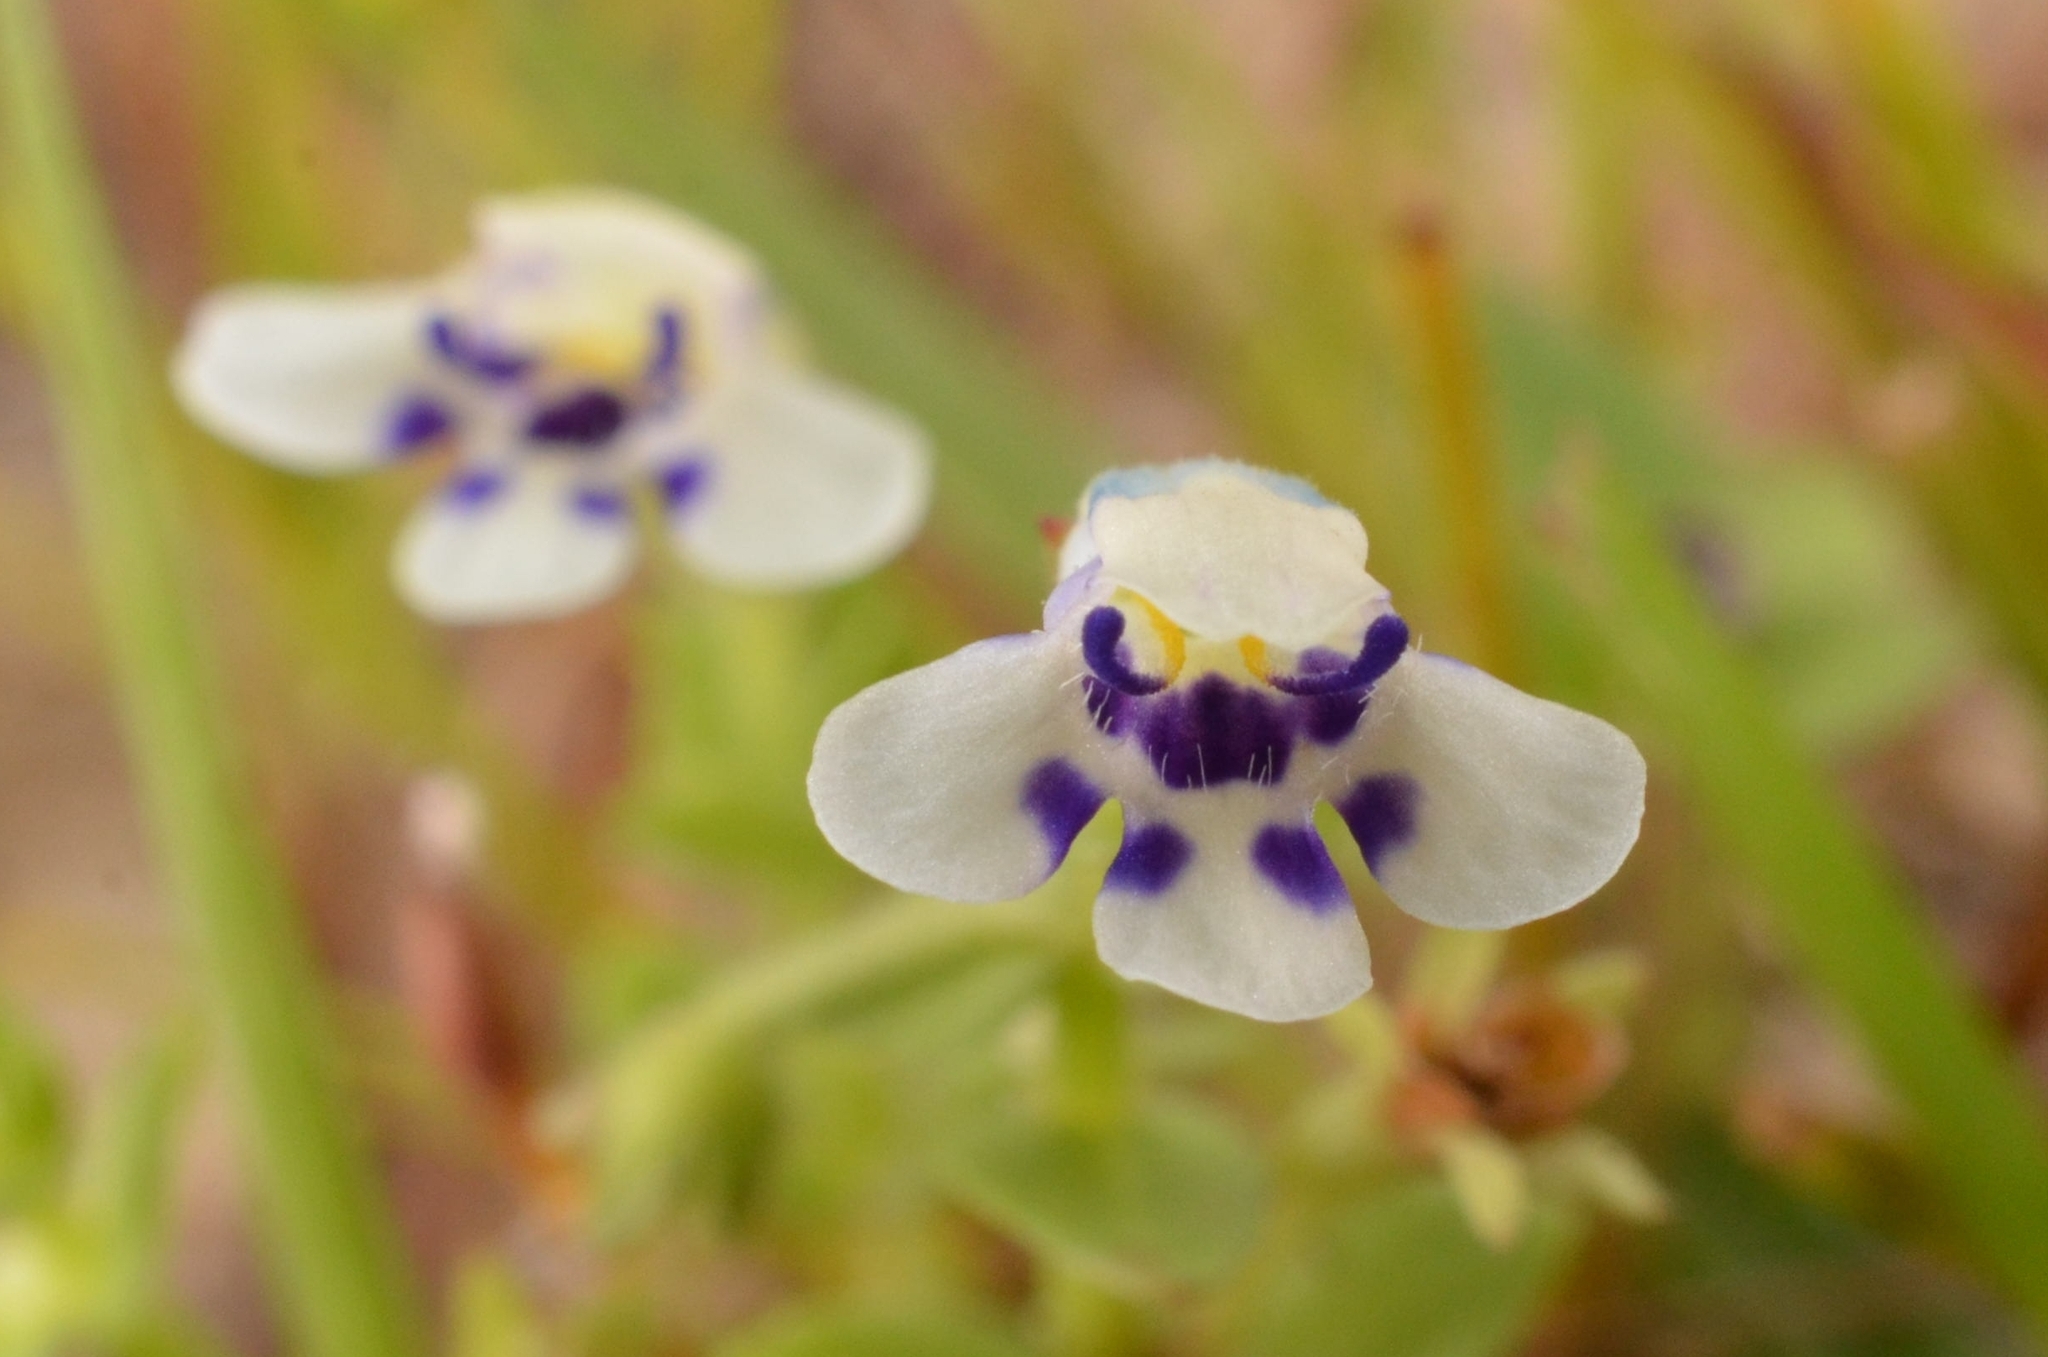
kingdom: Plantae
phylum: Tracheophyta
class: Magnoliopsida
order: Lamiales
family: Linderniaceae
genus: Lindernia
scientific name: Lindernia rotundifolia
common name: Baby’s tears
